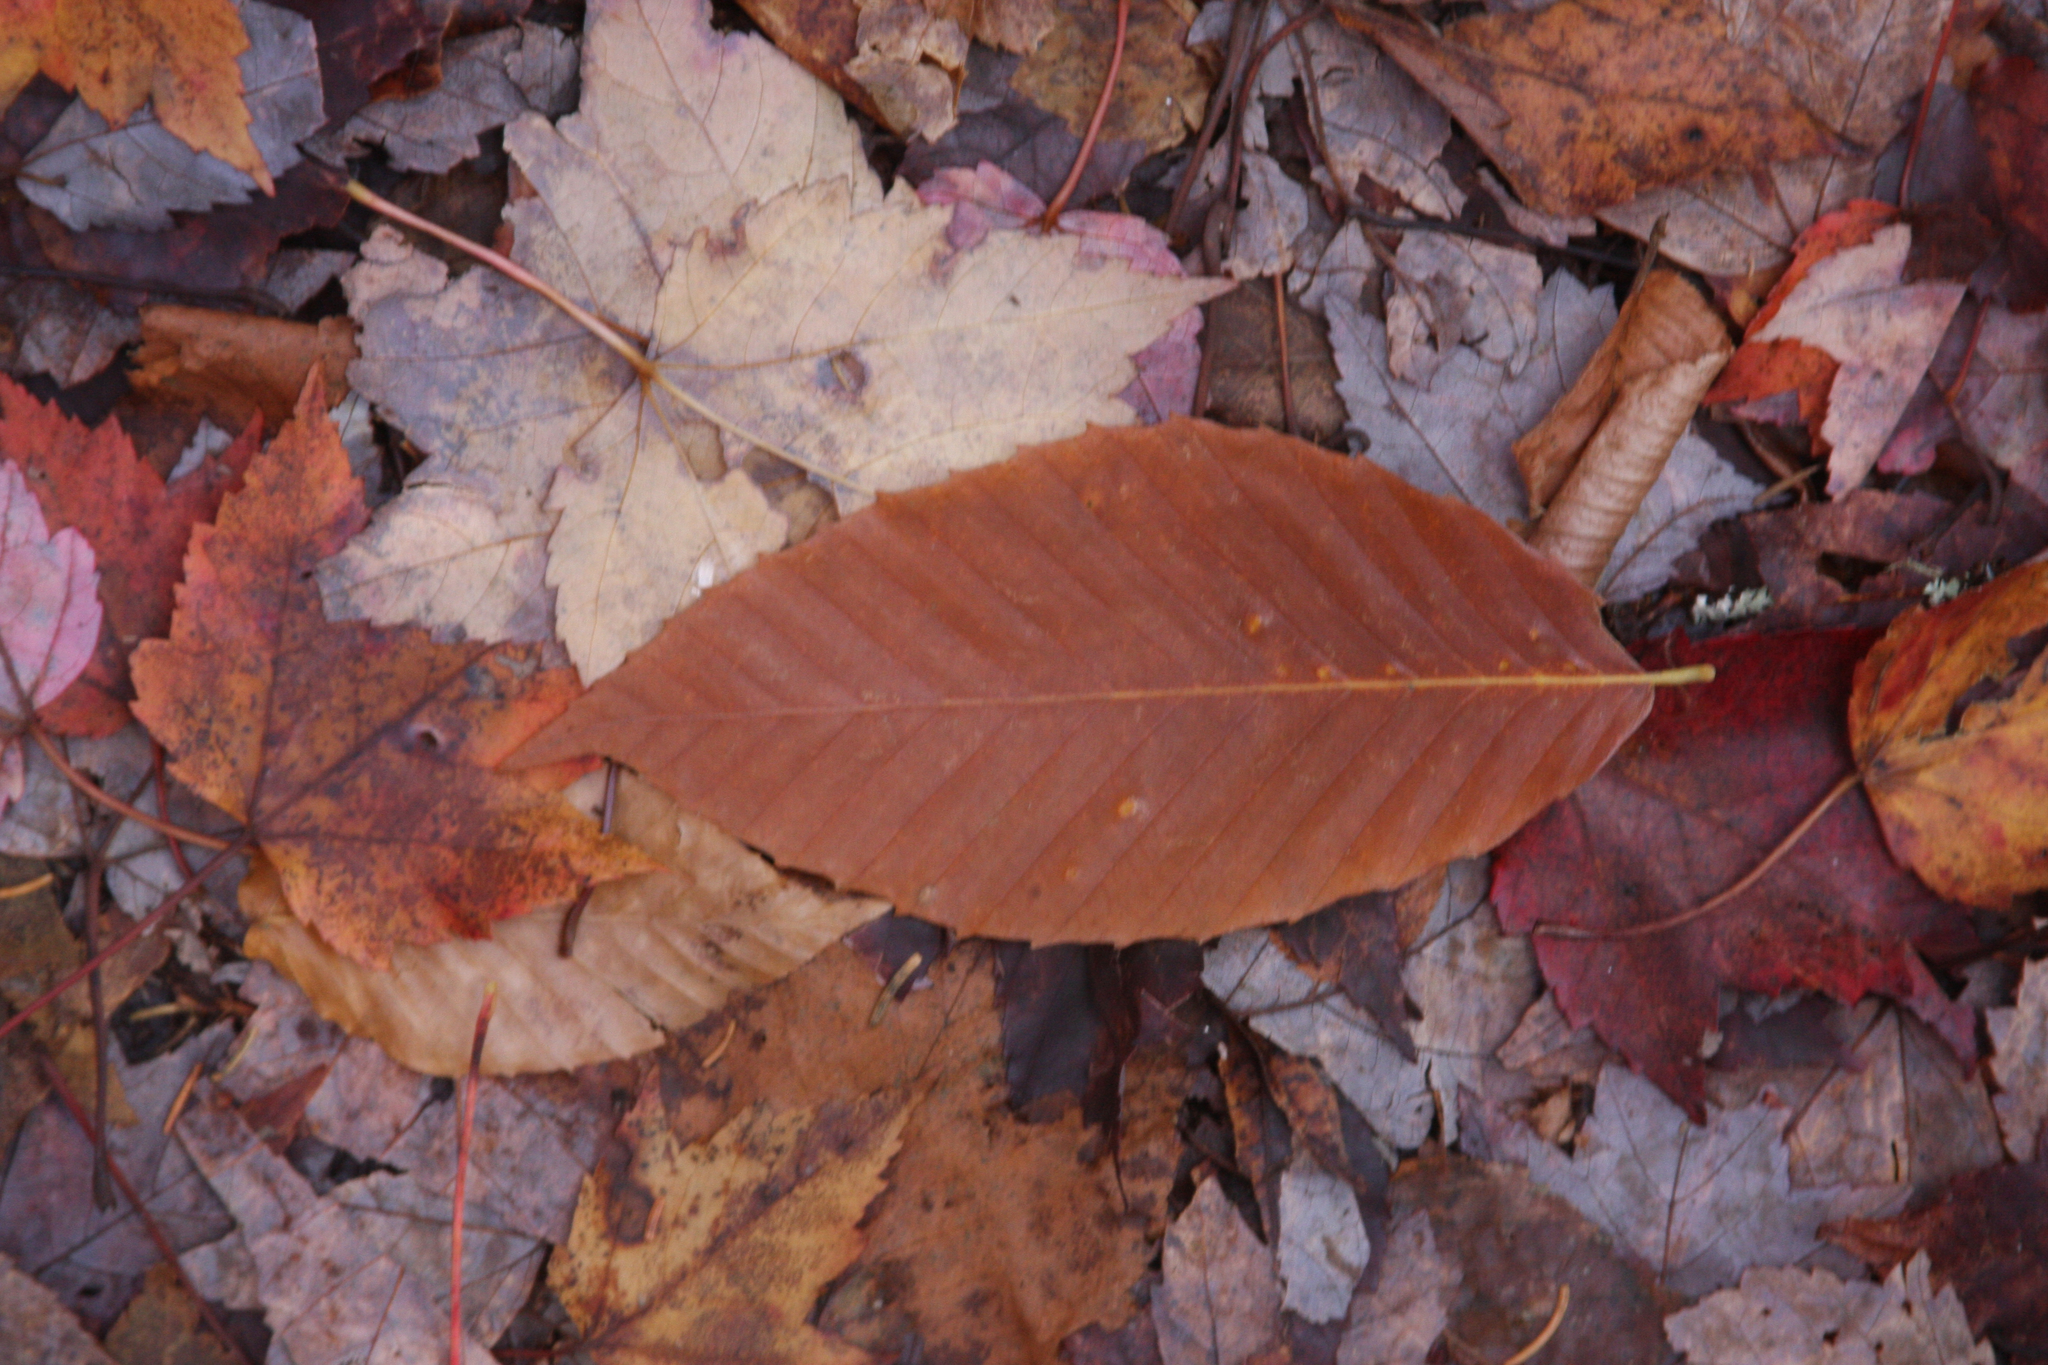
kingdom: Plantae
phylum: Tracheophyta
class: Magnoliopsida
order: Fagales
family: Fagaceae
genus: Fagus
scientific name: Fagus grandifolia
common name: American beech
